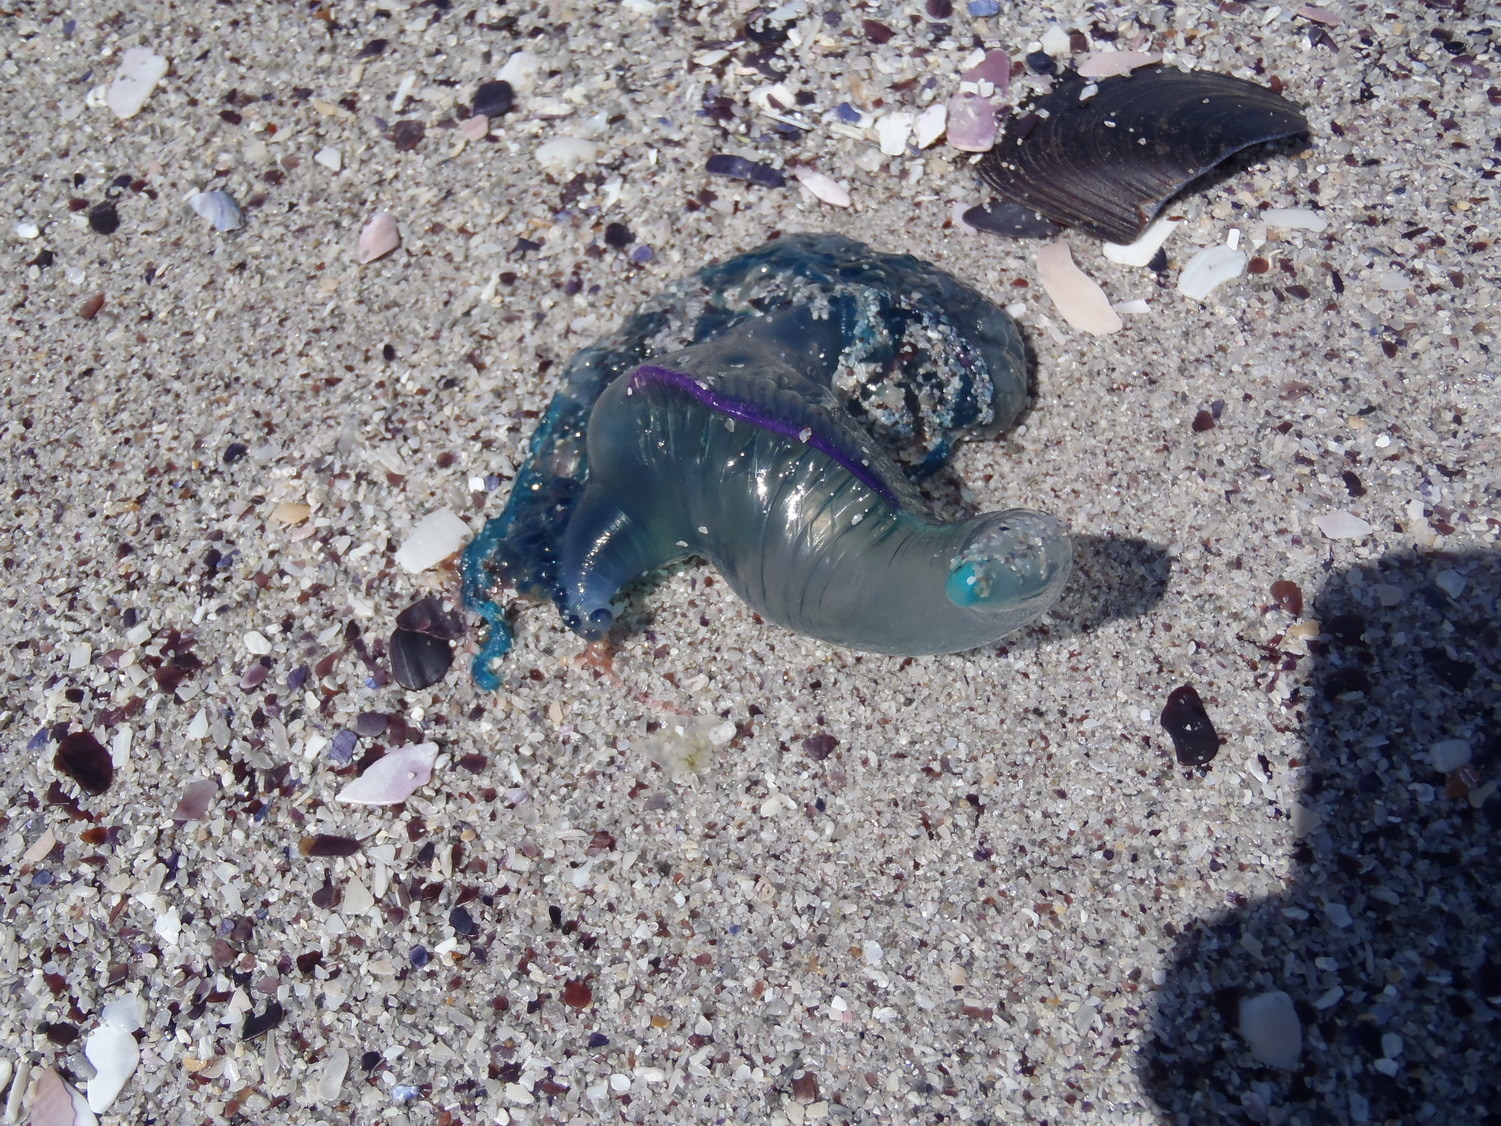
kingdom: Animalia
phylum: Cnidaria
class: Hydrozoa
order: Siphonophorae
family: Physaliidae
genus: Physalia
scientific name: Physalia physalis
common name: Portuguese man-of-war
